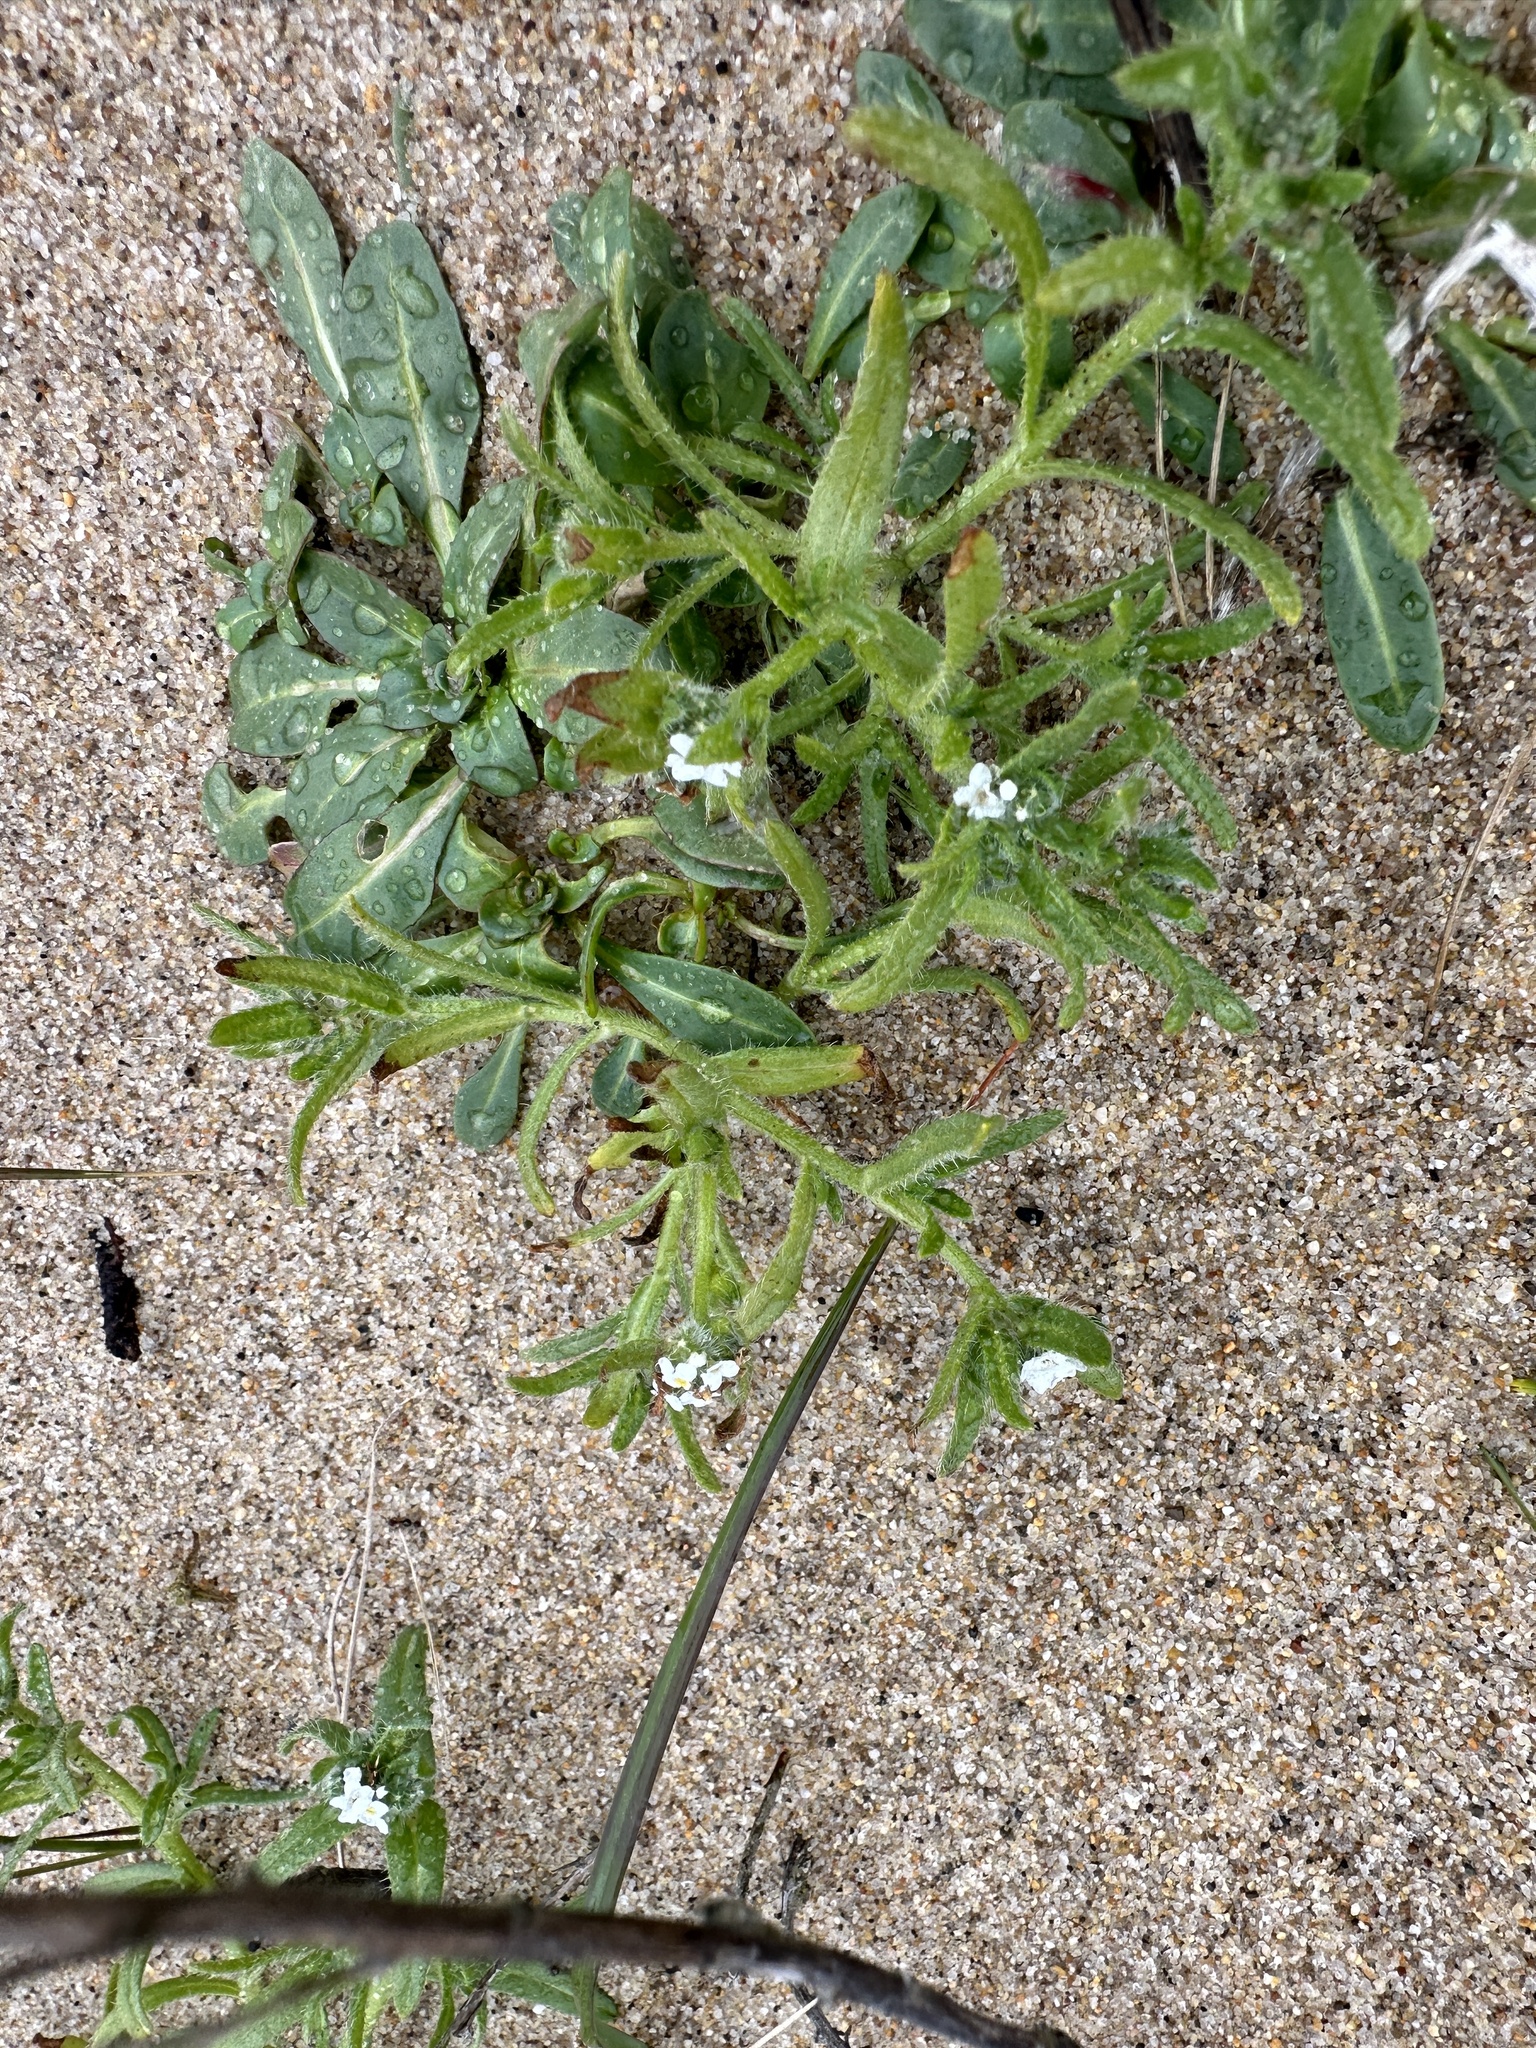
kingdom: Plantae
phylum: Tracheophyta
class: Magnoliopsida
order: Boraginales
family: Boraginaceae
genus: Cryptantha
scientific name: Cryptantha leiocarpa
